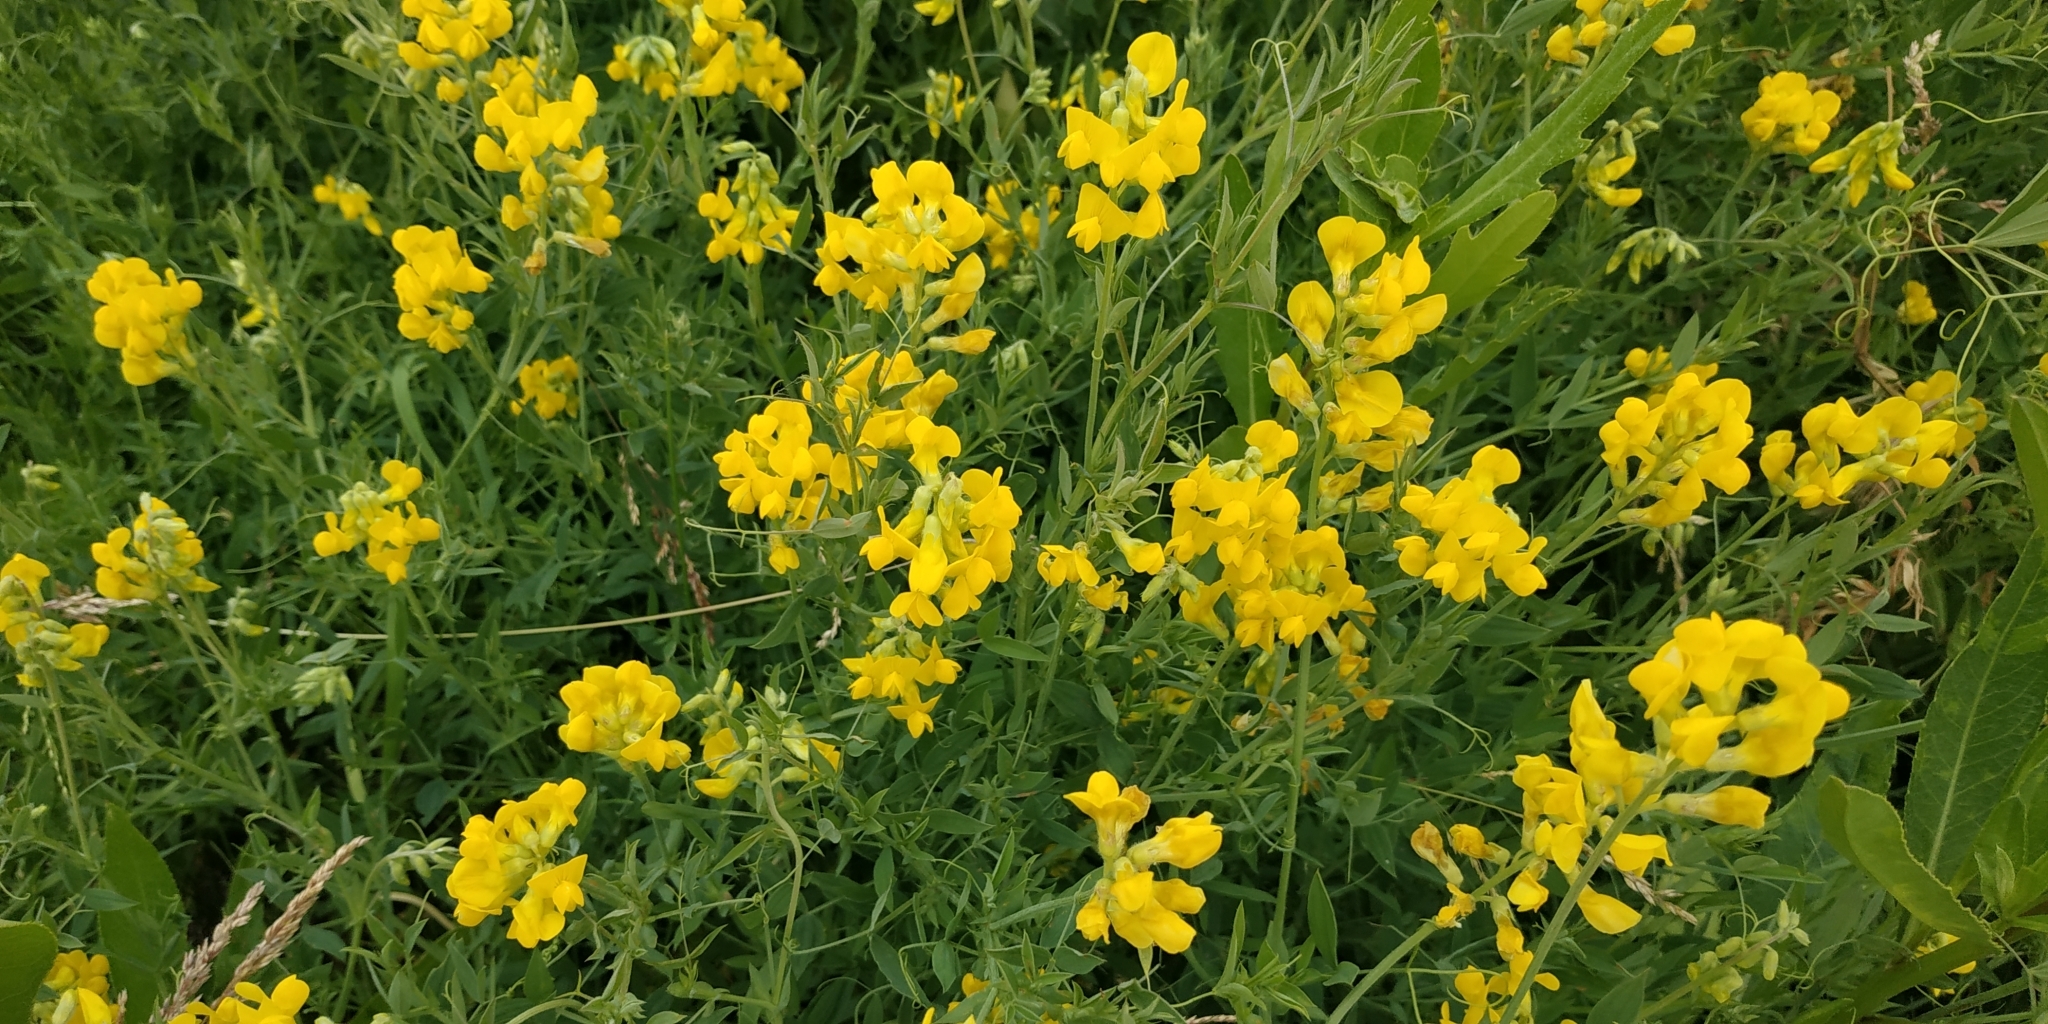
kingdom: Plantae
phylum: Tracheophyta
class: Magnoliopsida
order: Fabales
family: Fabaceae
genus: Lathyrus
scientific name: Lathyrus pratensis
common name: Meadow vetchling
